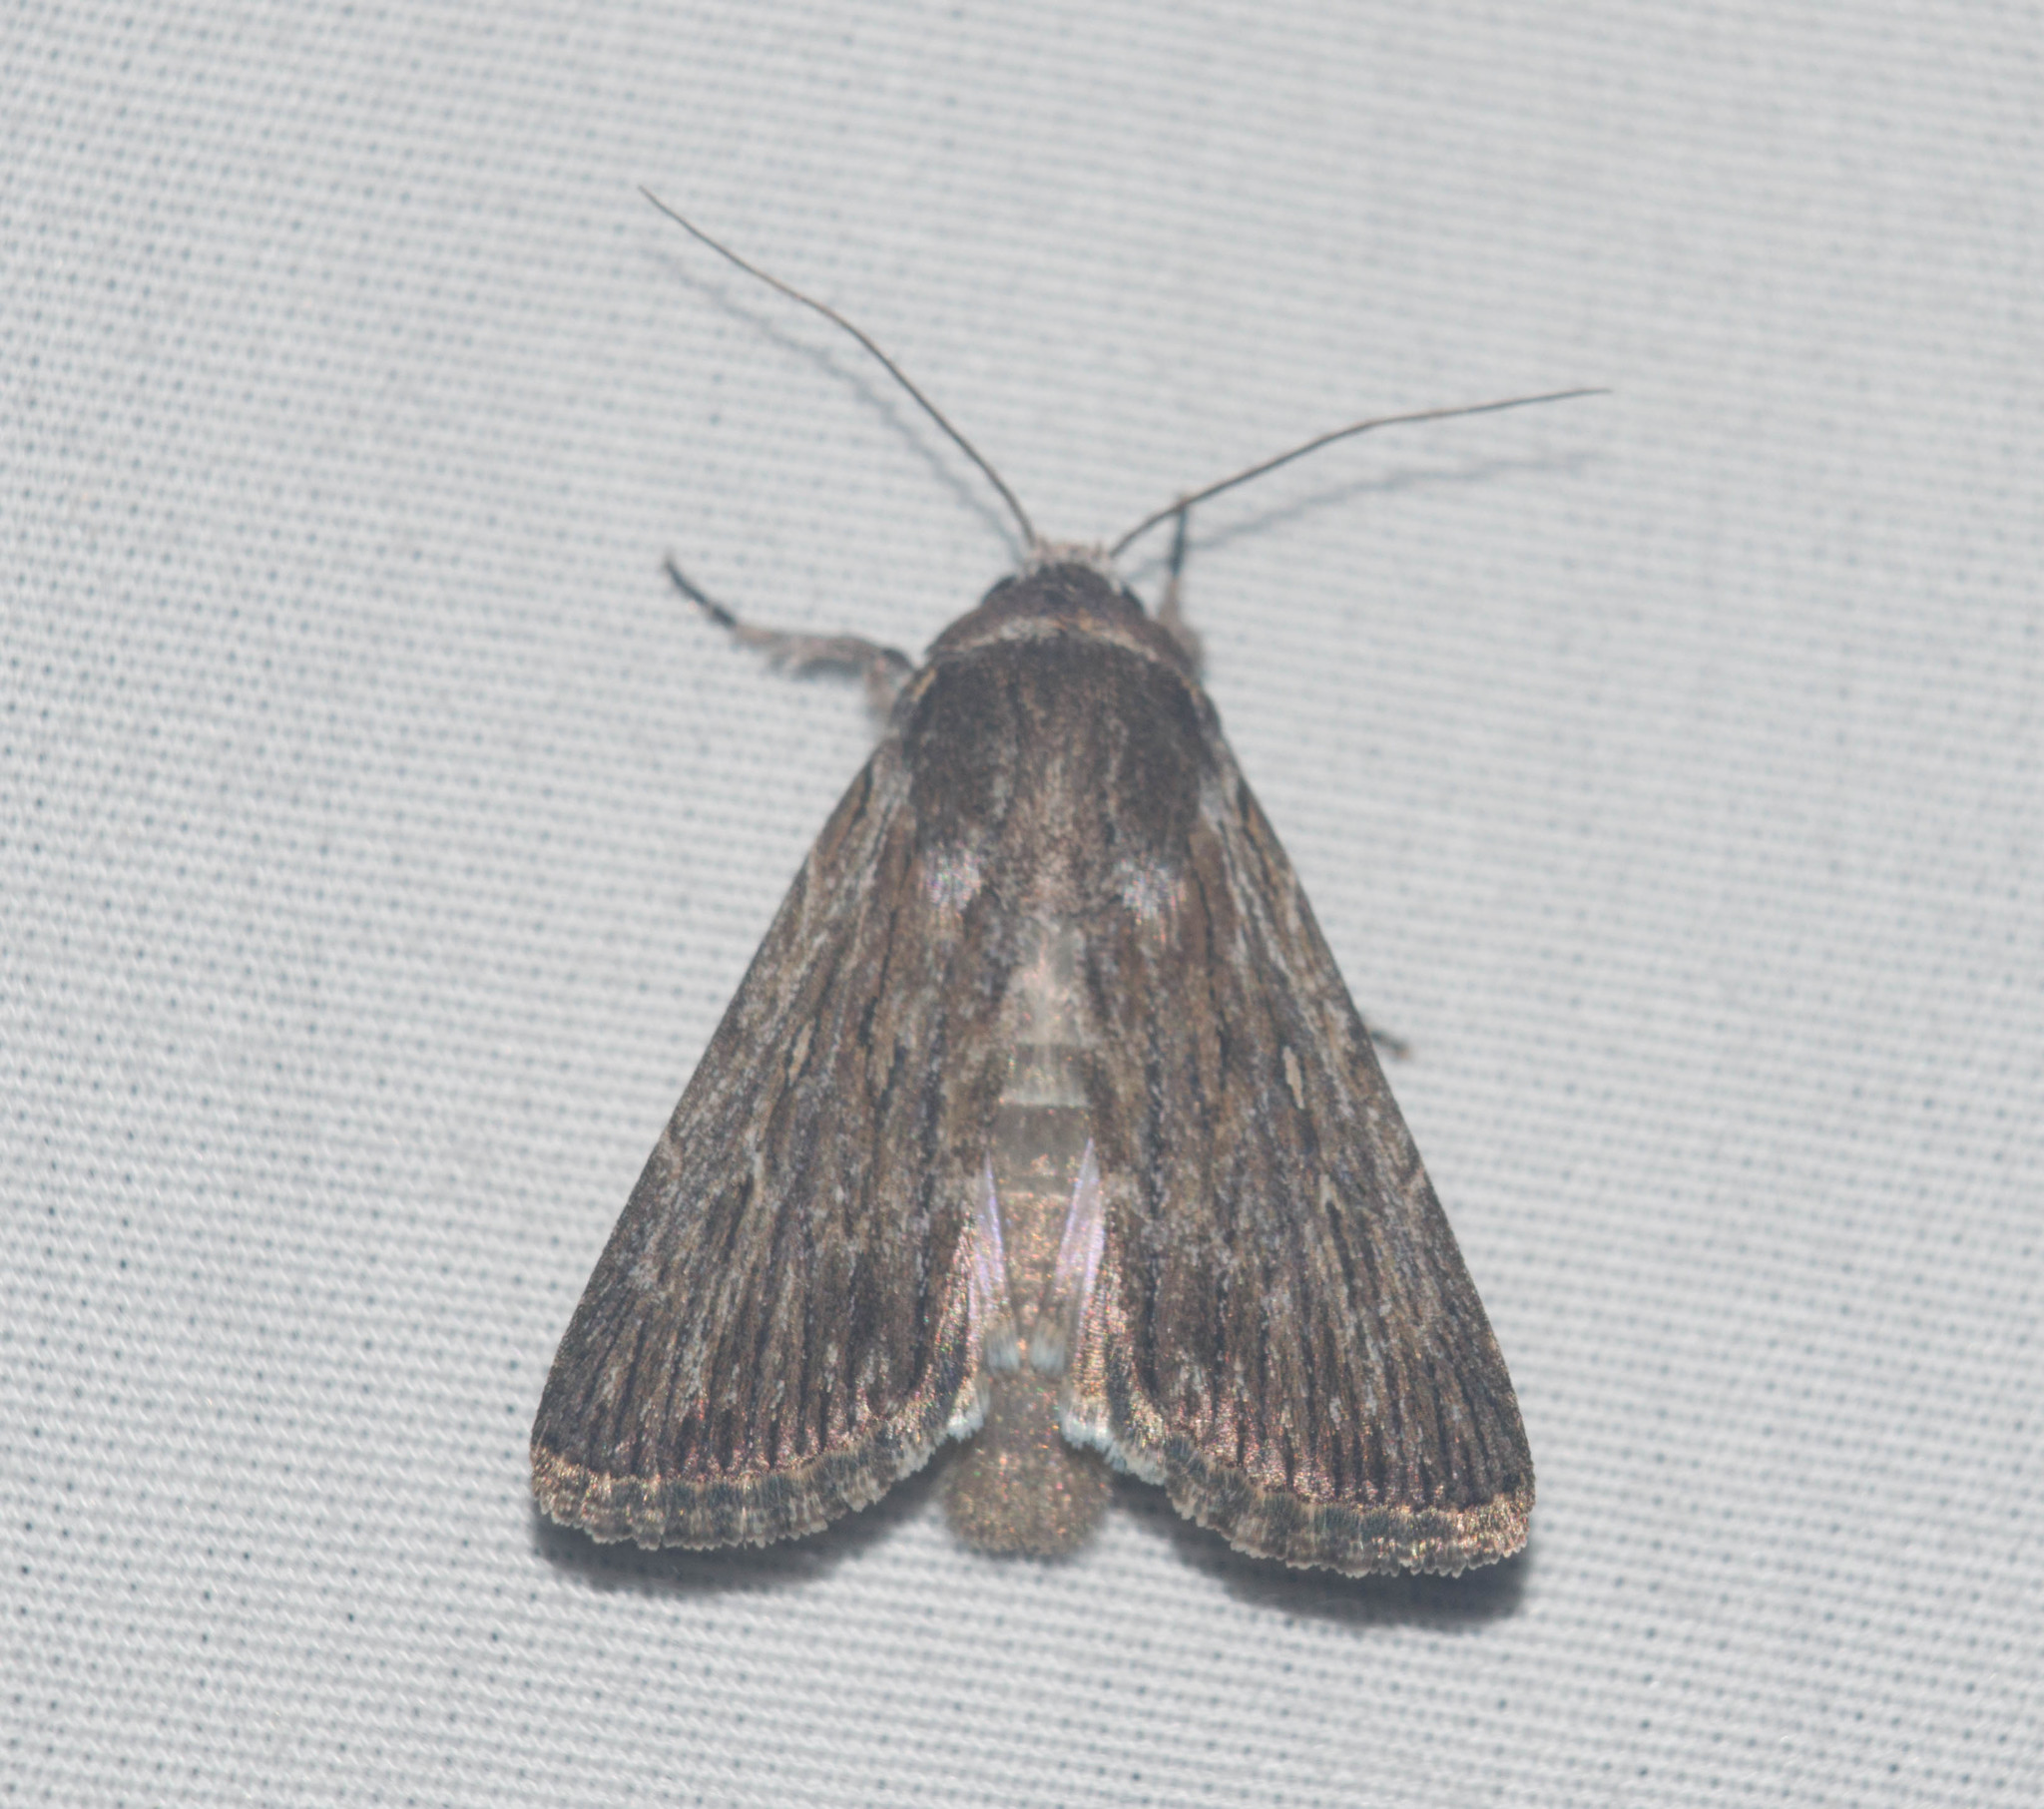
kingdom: Animalia
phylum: Arthropoda
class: Insecta
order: Lepidoptera
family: Noctuidae
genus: Neogalea
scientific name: Neogalea sunia
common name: Lantana stick caterpillar
